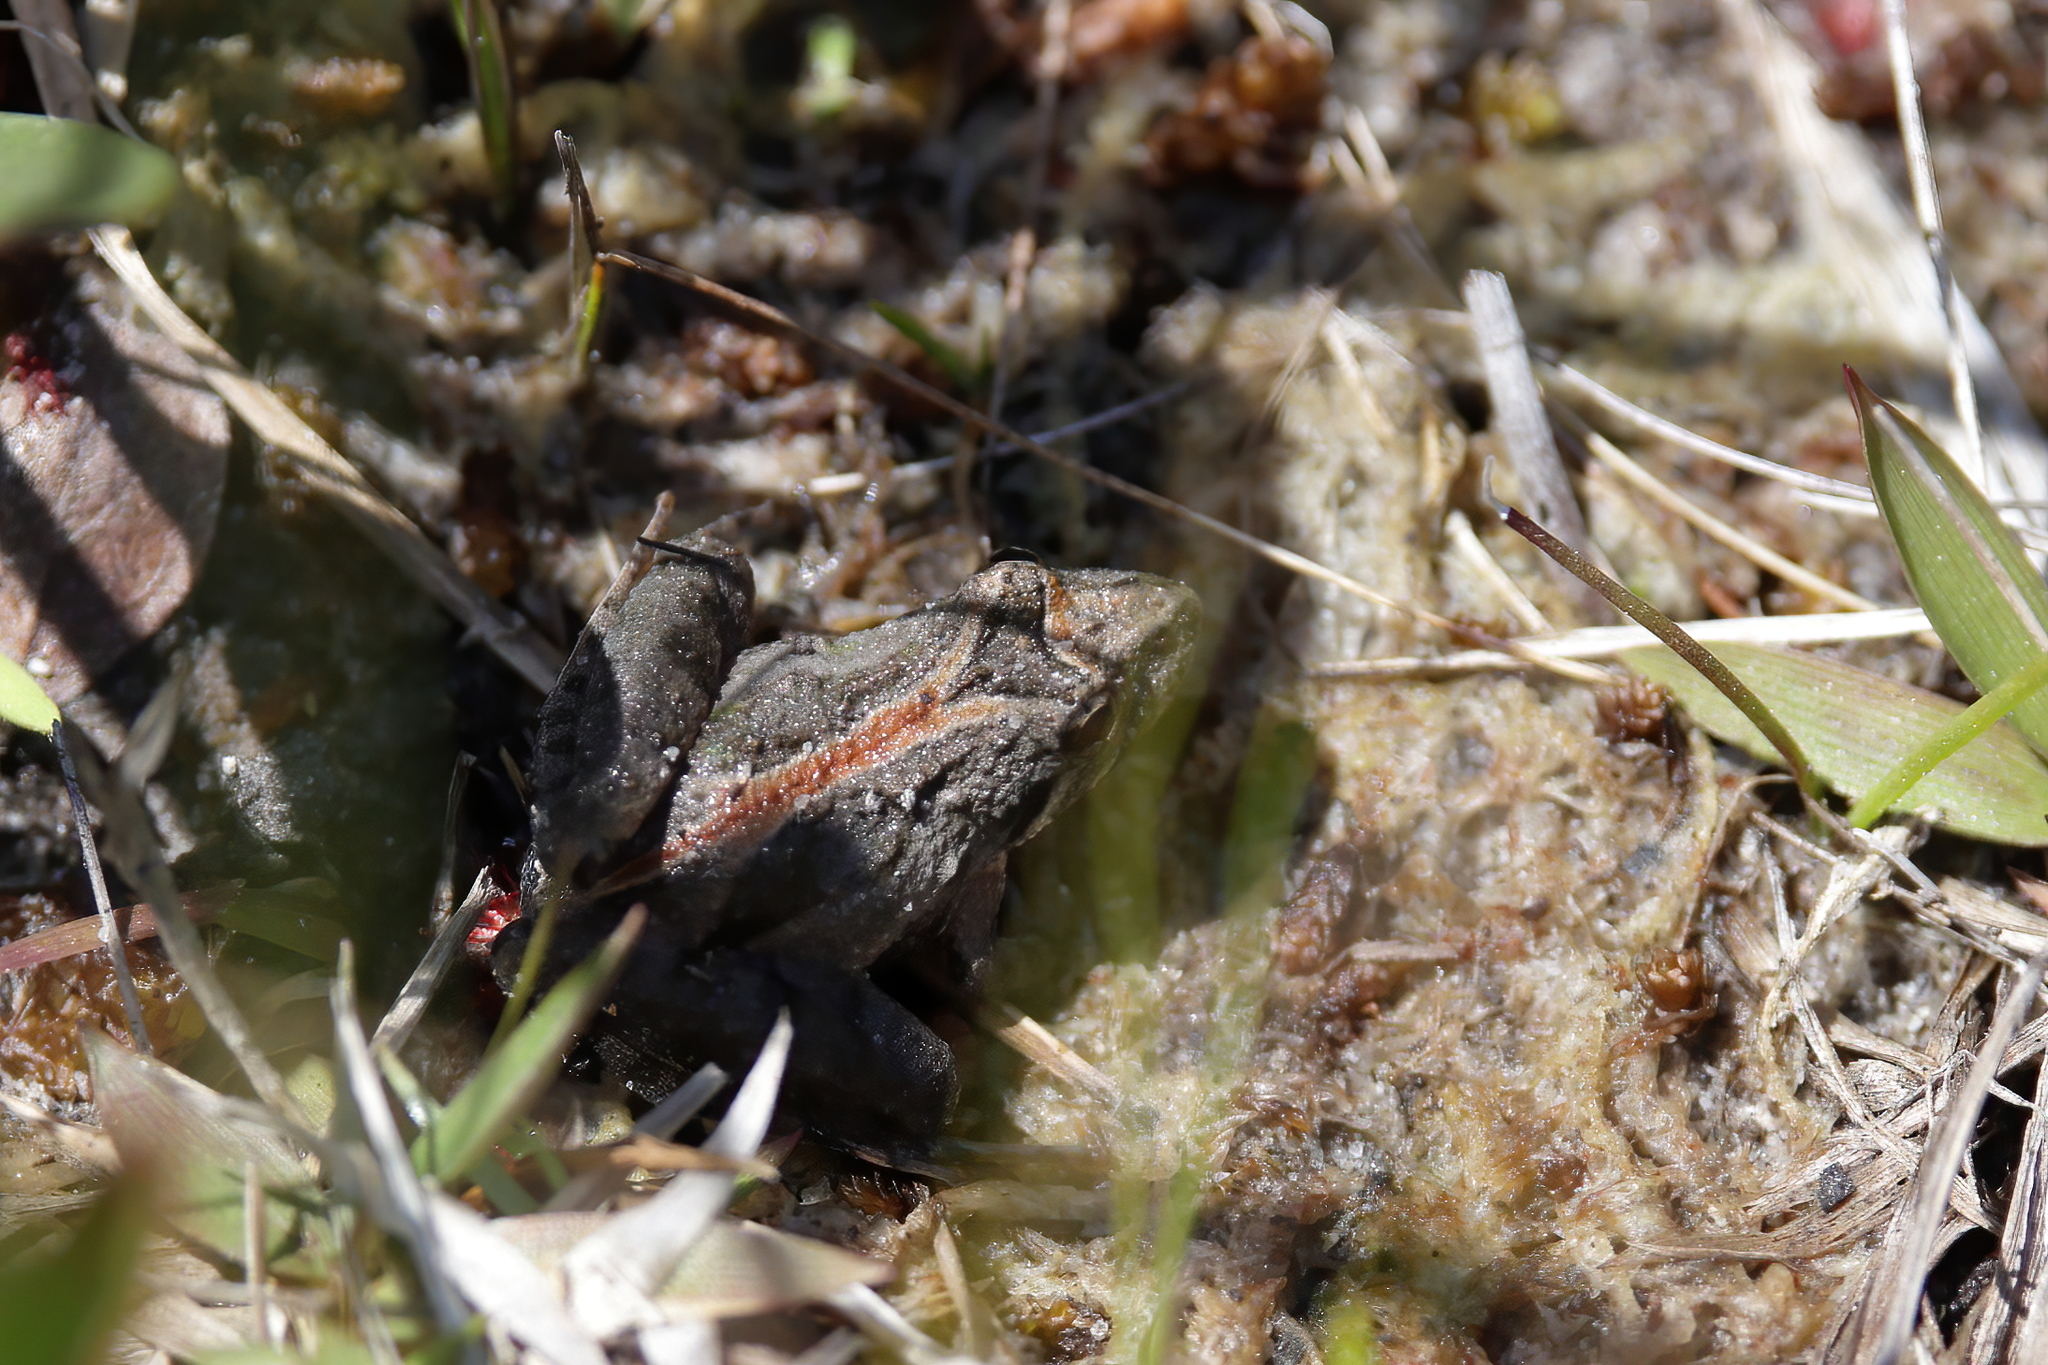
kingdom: Animalia
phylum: Chordata
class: Amphibia
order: Anura
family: Hylidae
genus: Acris
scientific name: Acris gryllus
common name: Southern cricket frog
